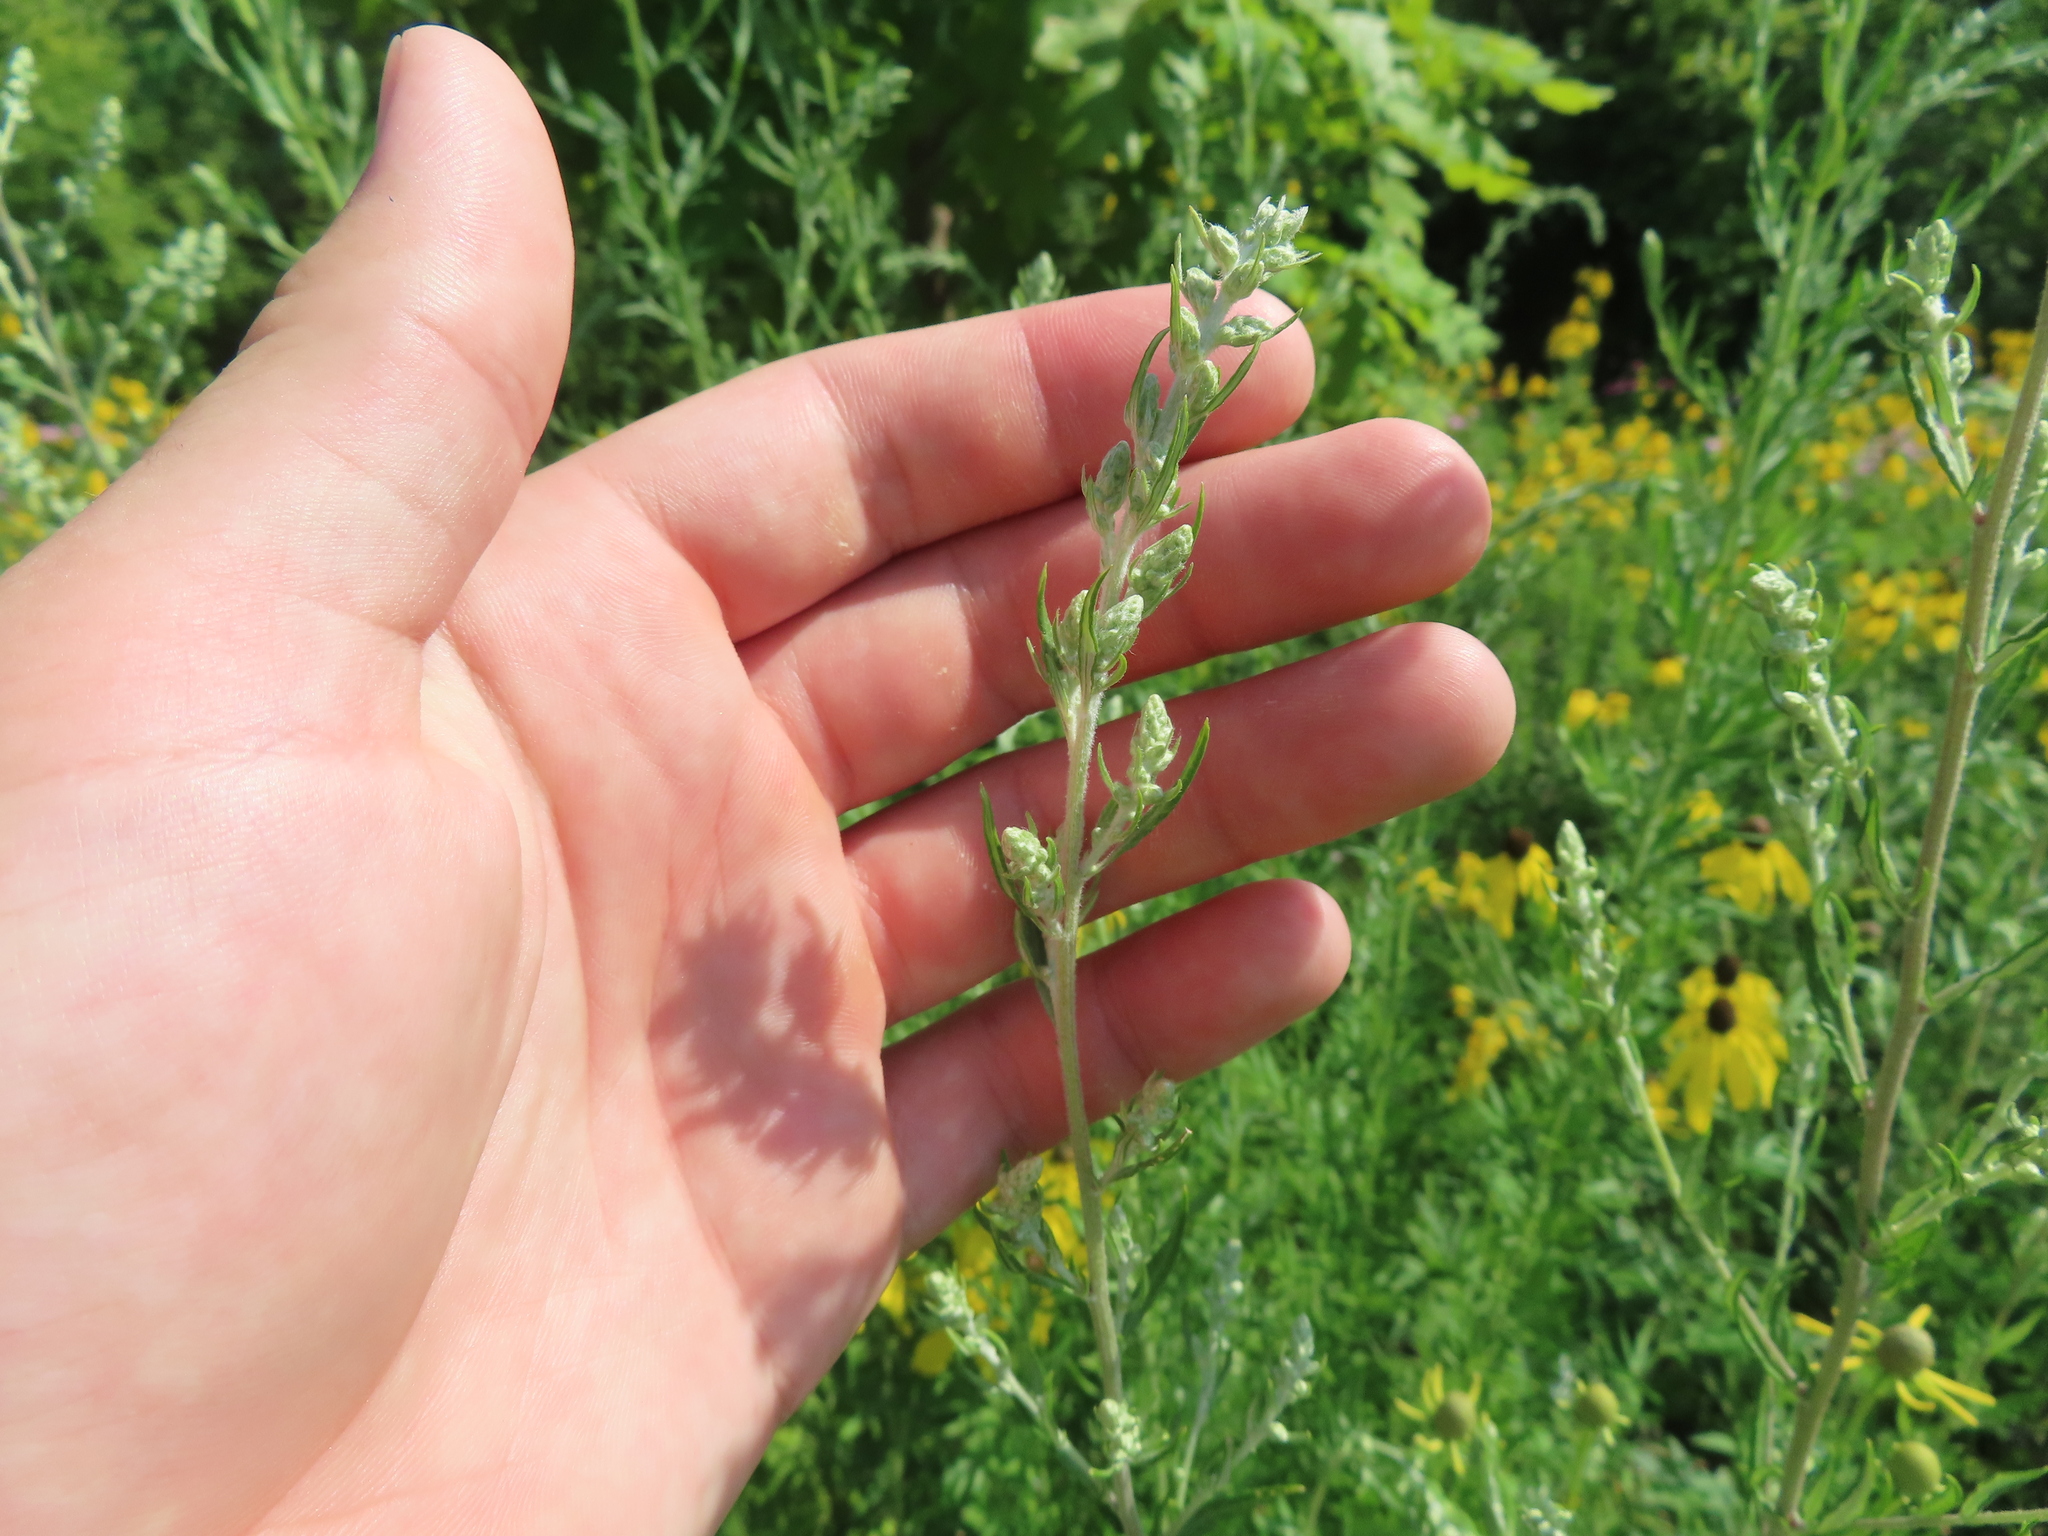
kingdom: Plantae
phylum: Tracheophyta
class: Magnoliopsida
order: Asterales
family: Asteraceae
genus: Artemisia
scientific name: Artemisia vulgaris
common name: Mugwort
